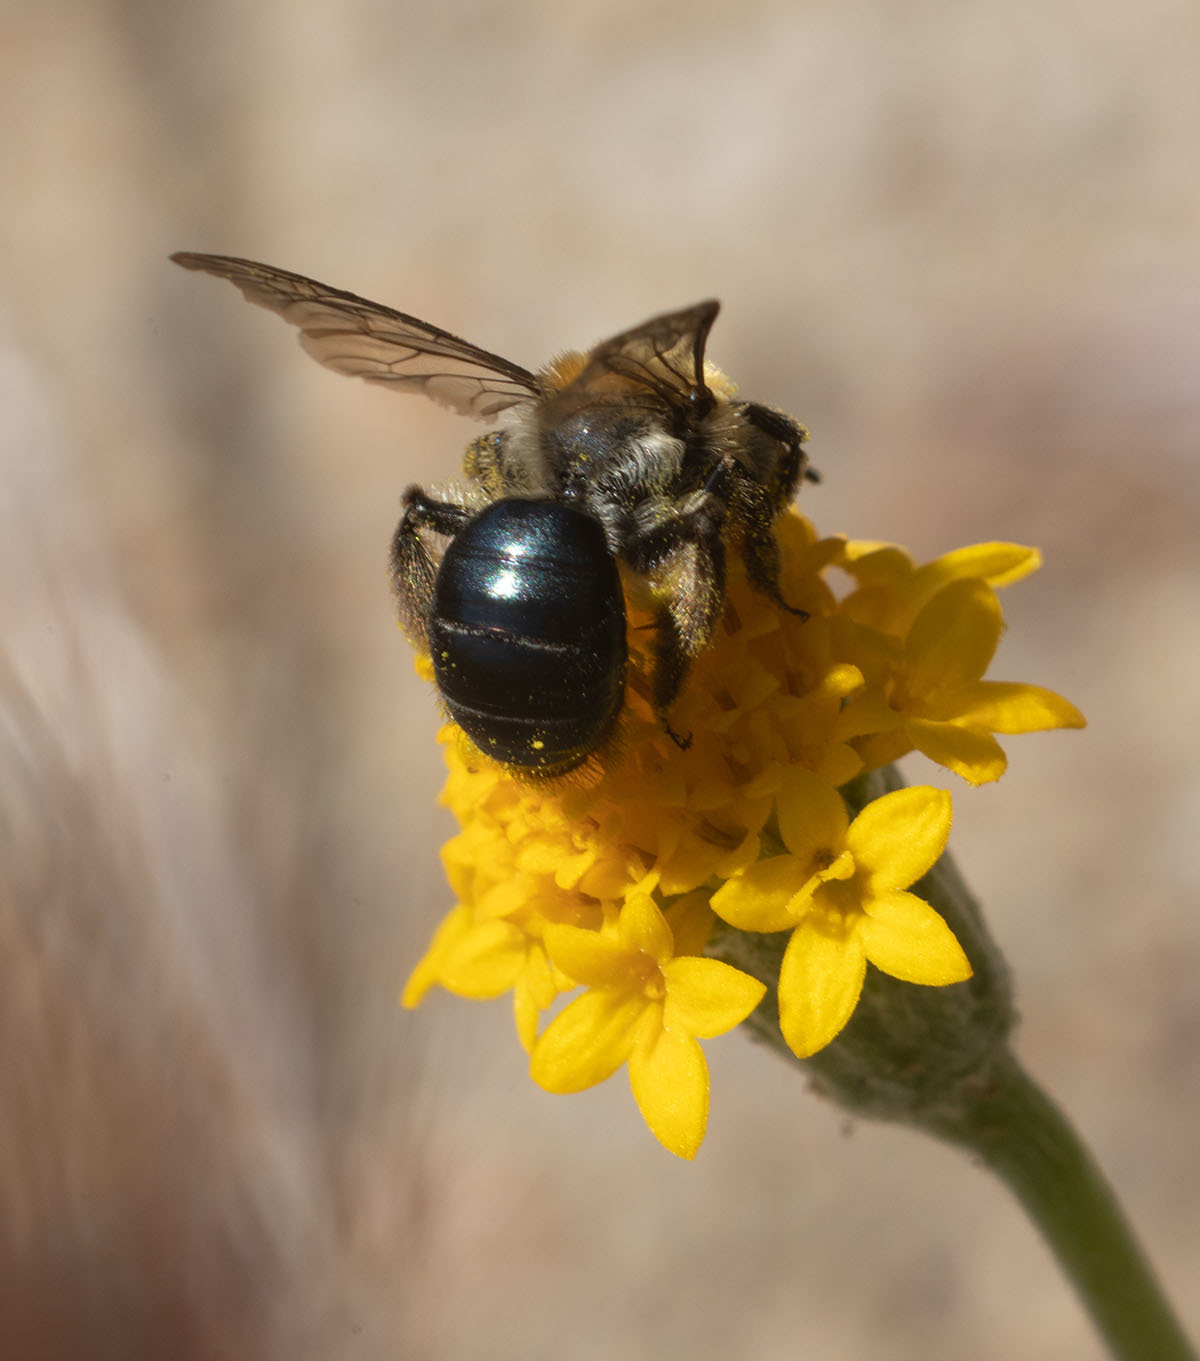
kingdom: Animalia
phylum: Arthropoda
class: Insecta
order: Hymenoptera
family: Andrenidae
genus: Andrena
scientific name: Andrena sola
